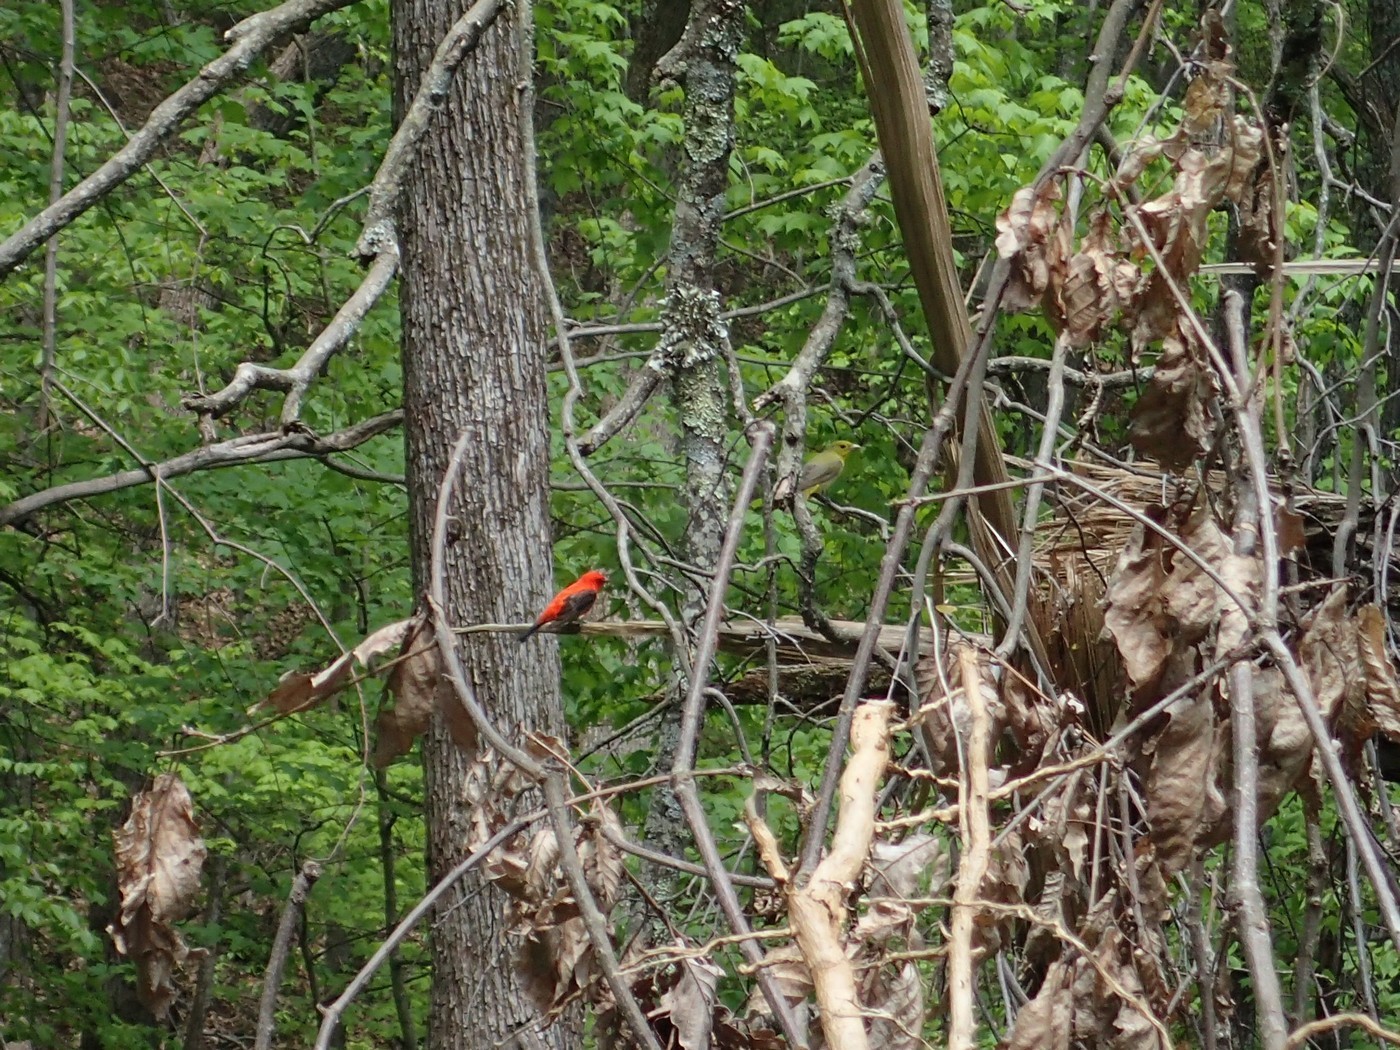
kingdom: Animalia
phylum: Chordata
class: Aves
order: Passeriformes
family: Cardinalidae
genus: Piranga
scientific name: Piranga olivacea
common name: Scarlet tanager
